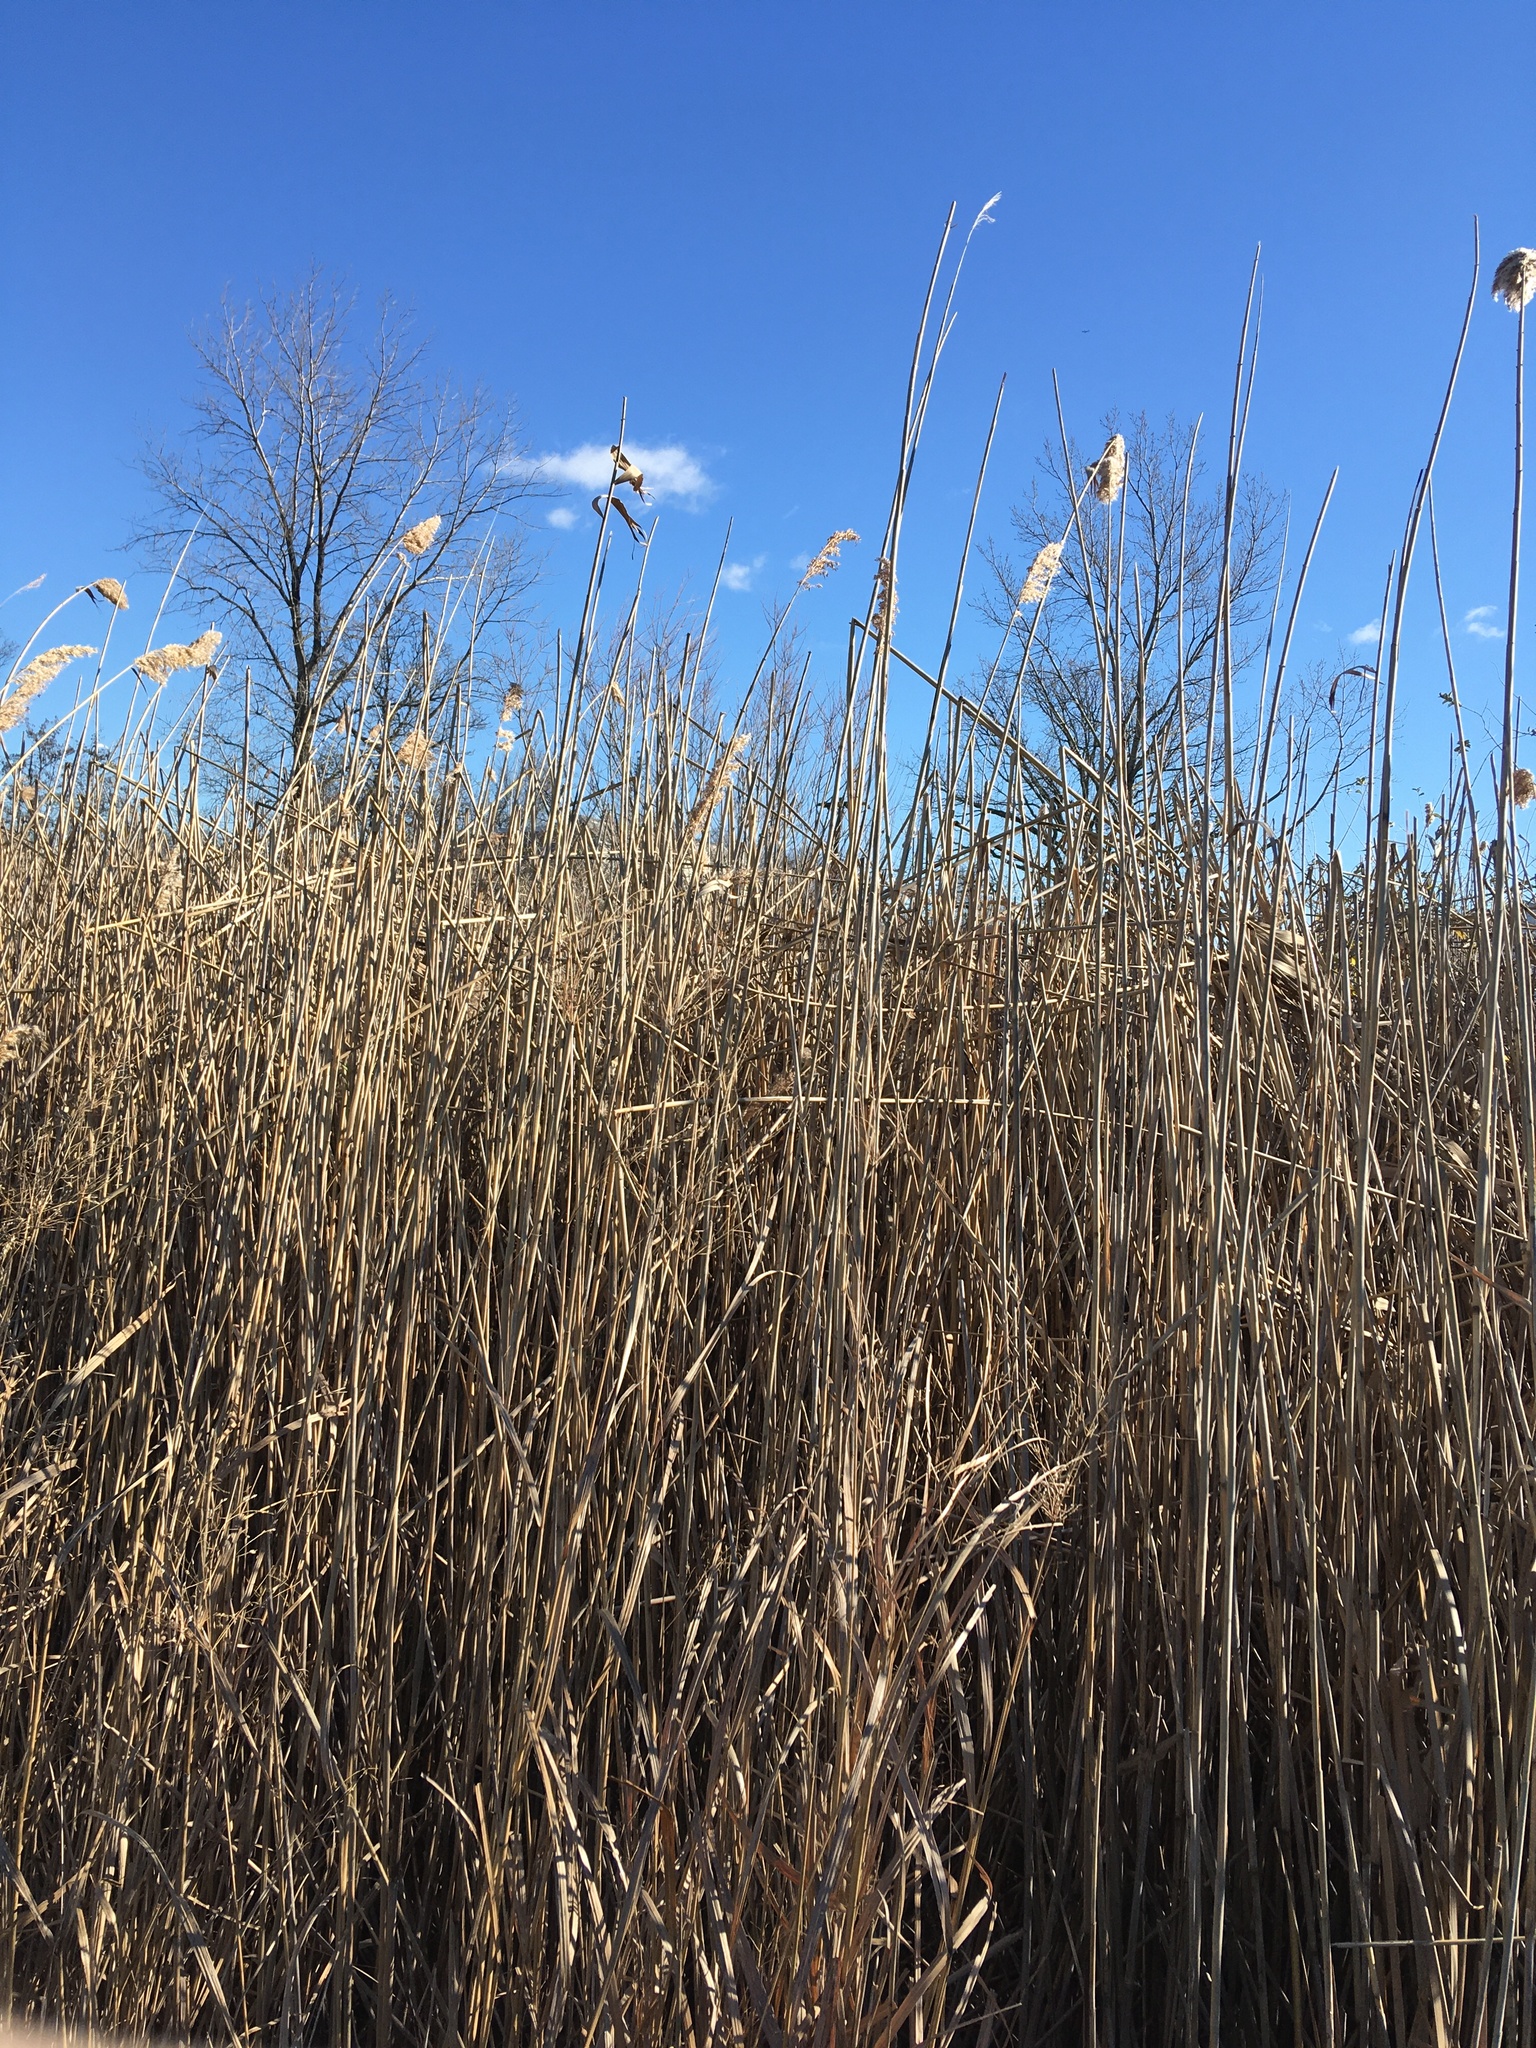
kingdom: Plantae
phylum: Tracheophyta
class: Liliopsida
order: Poales
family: Poaceae
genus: Phragmites
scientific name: Phragmites australis
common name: Common reed
